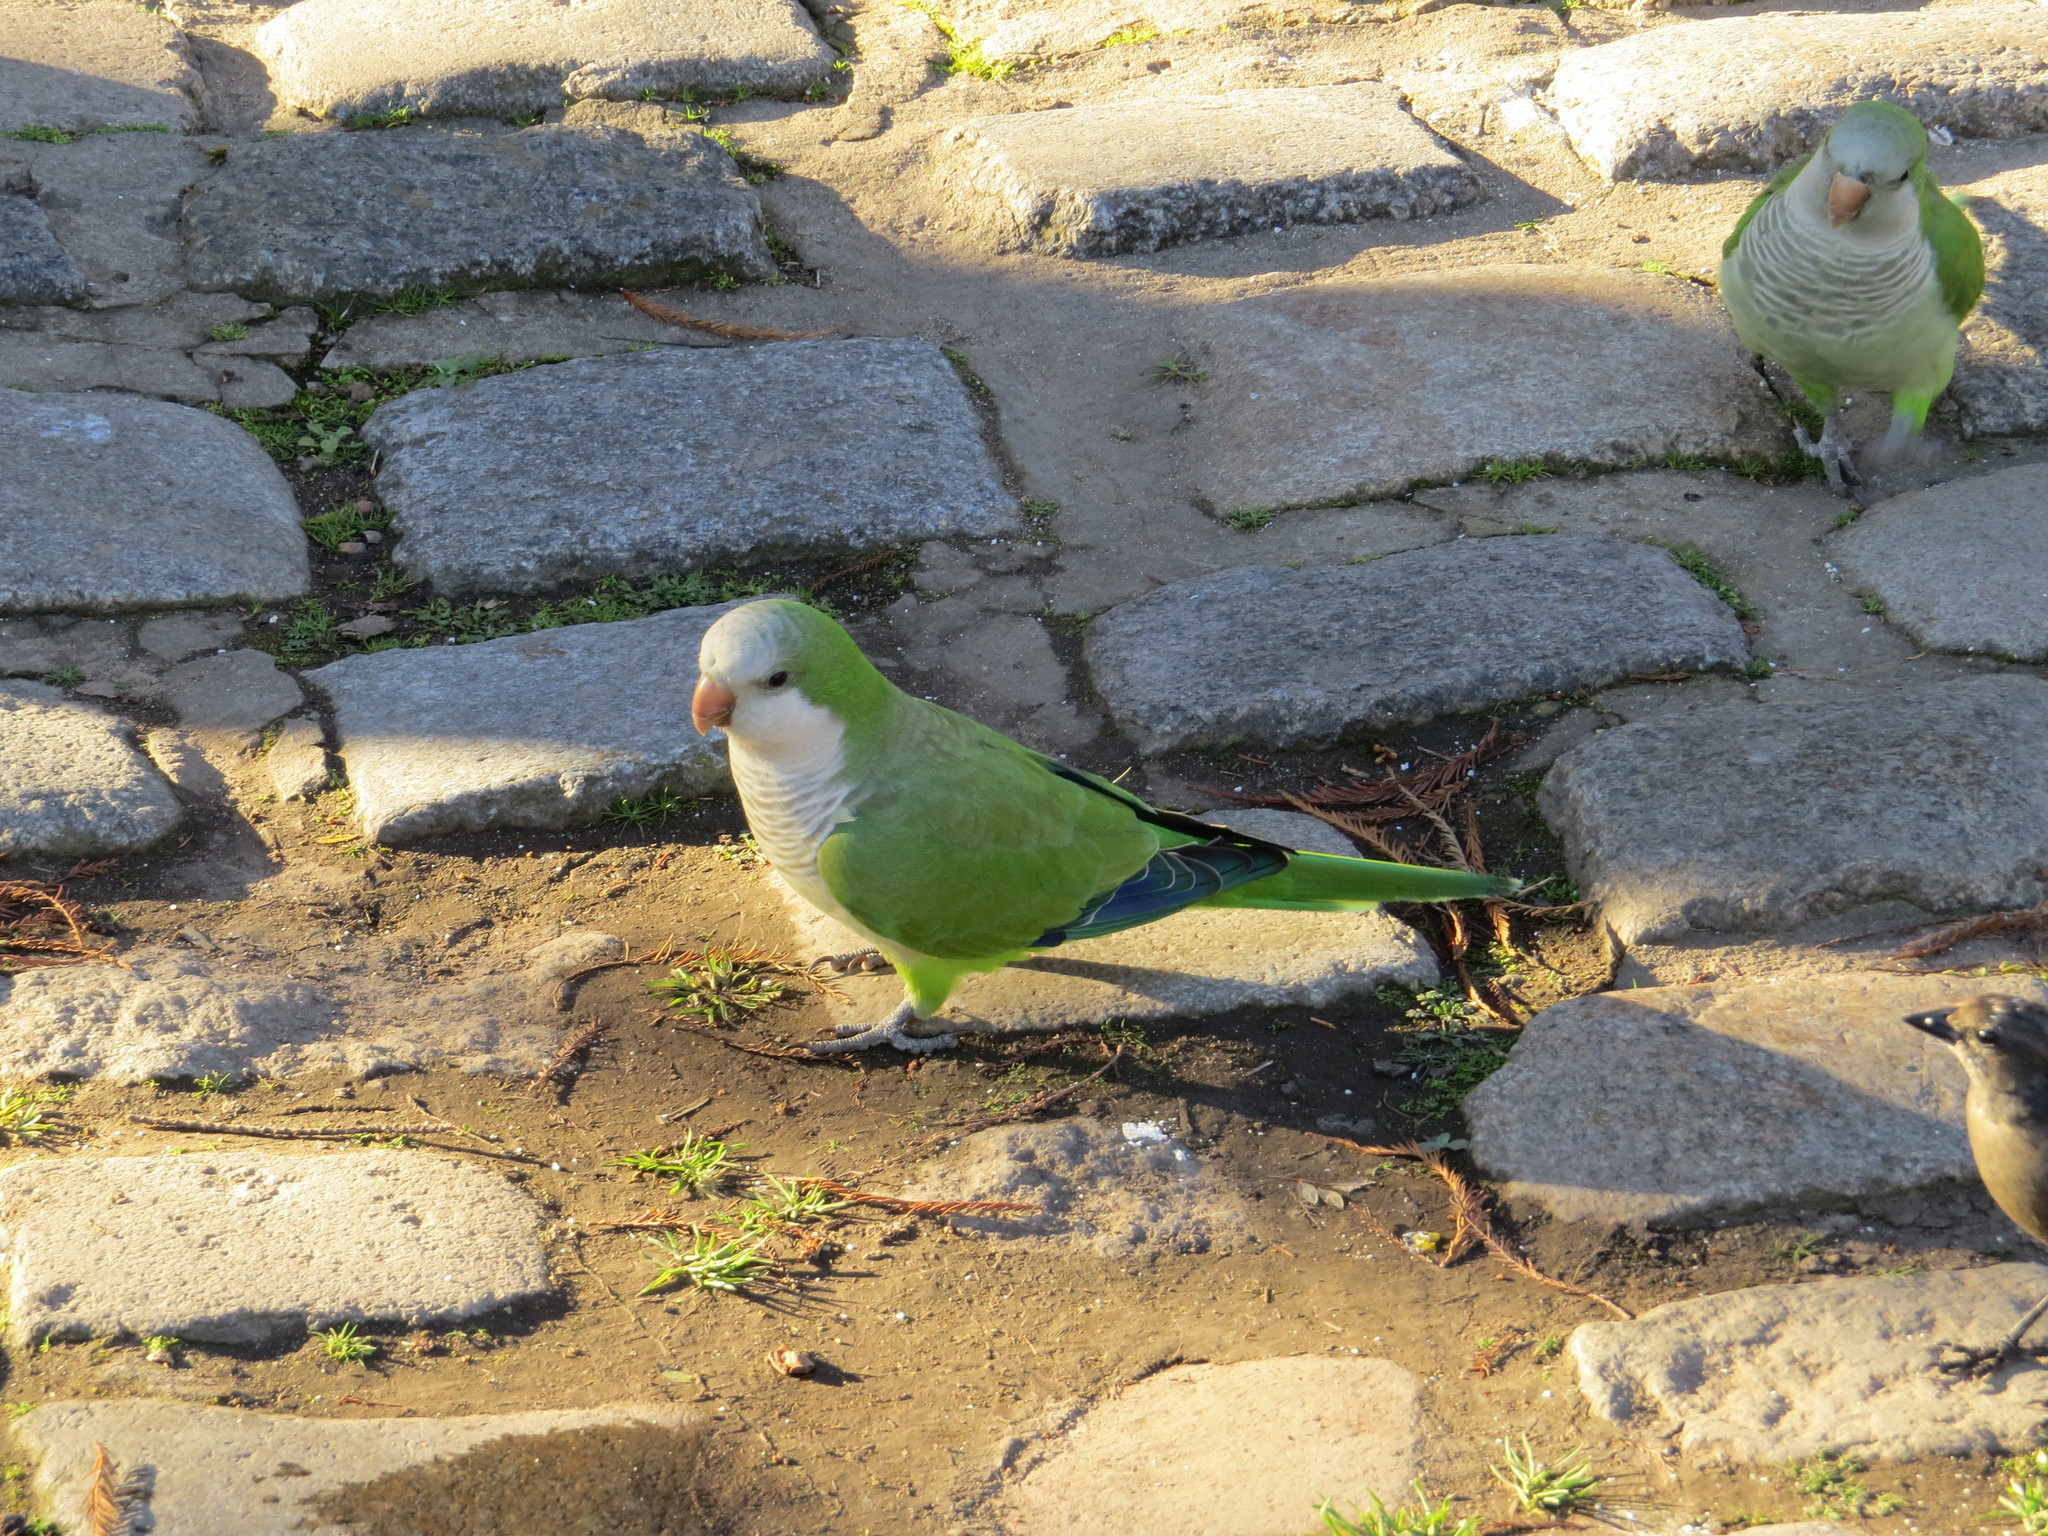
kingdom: Animalia
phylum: Chordata
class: Aves
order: Psittaciformes
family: Psittacidae
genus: Myiopsitta
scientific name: Myiopsitta monachus
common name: Monk parakeet
